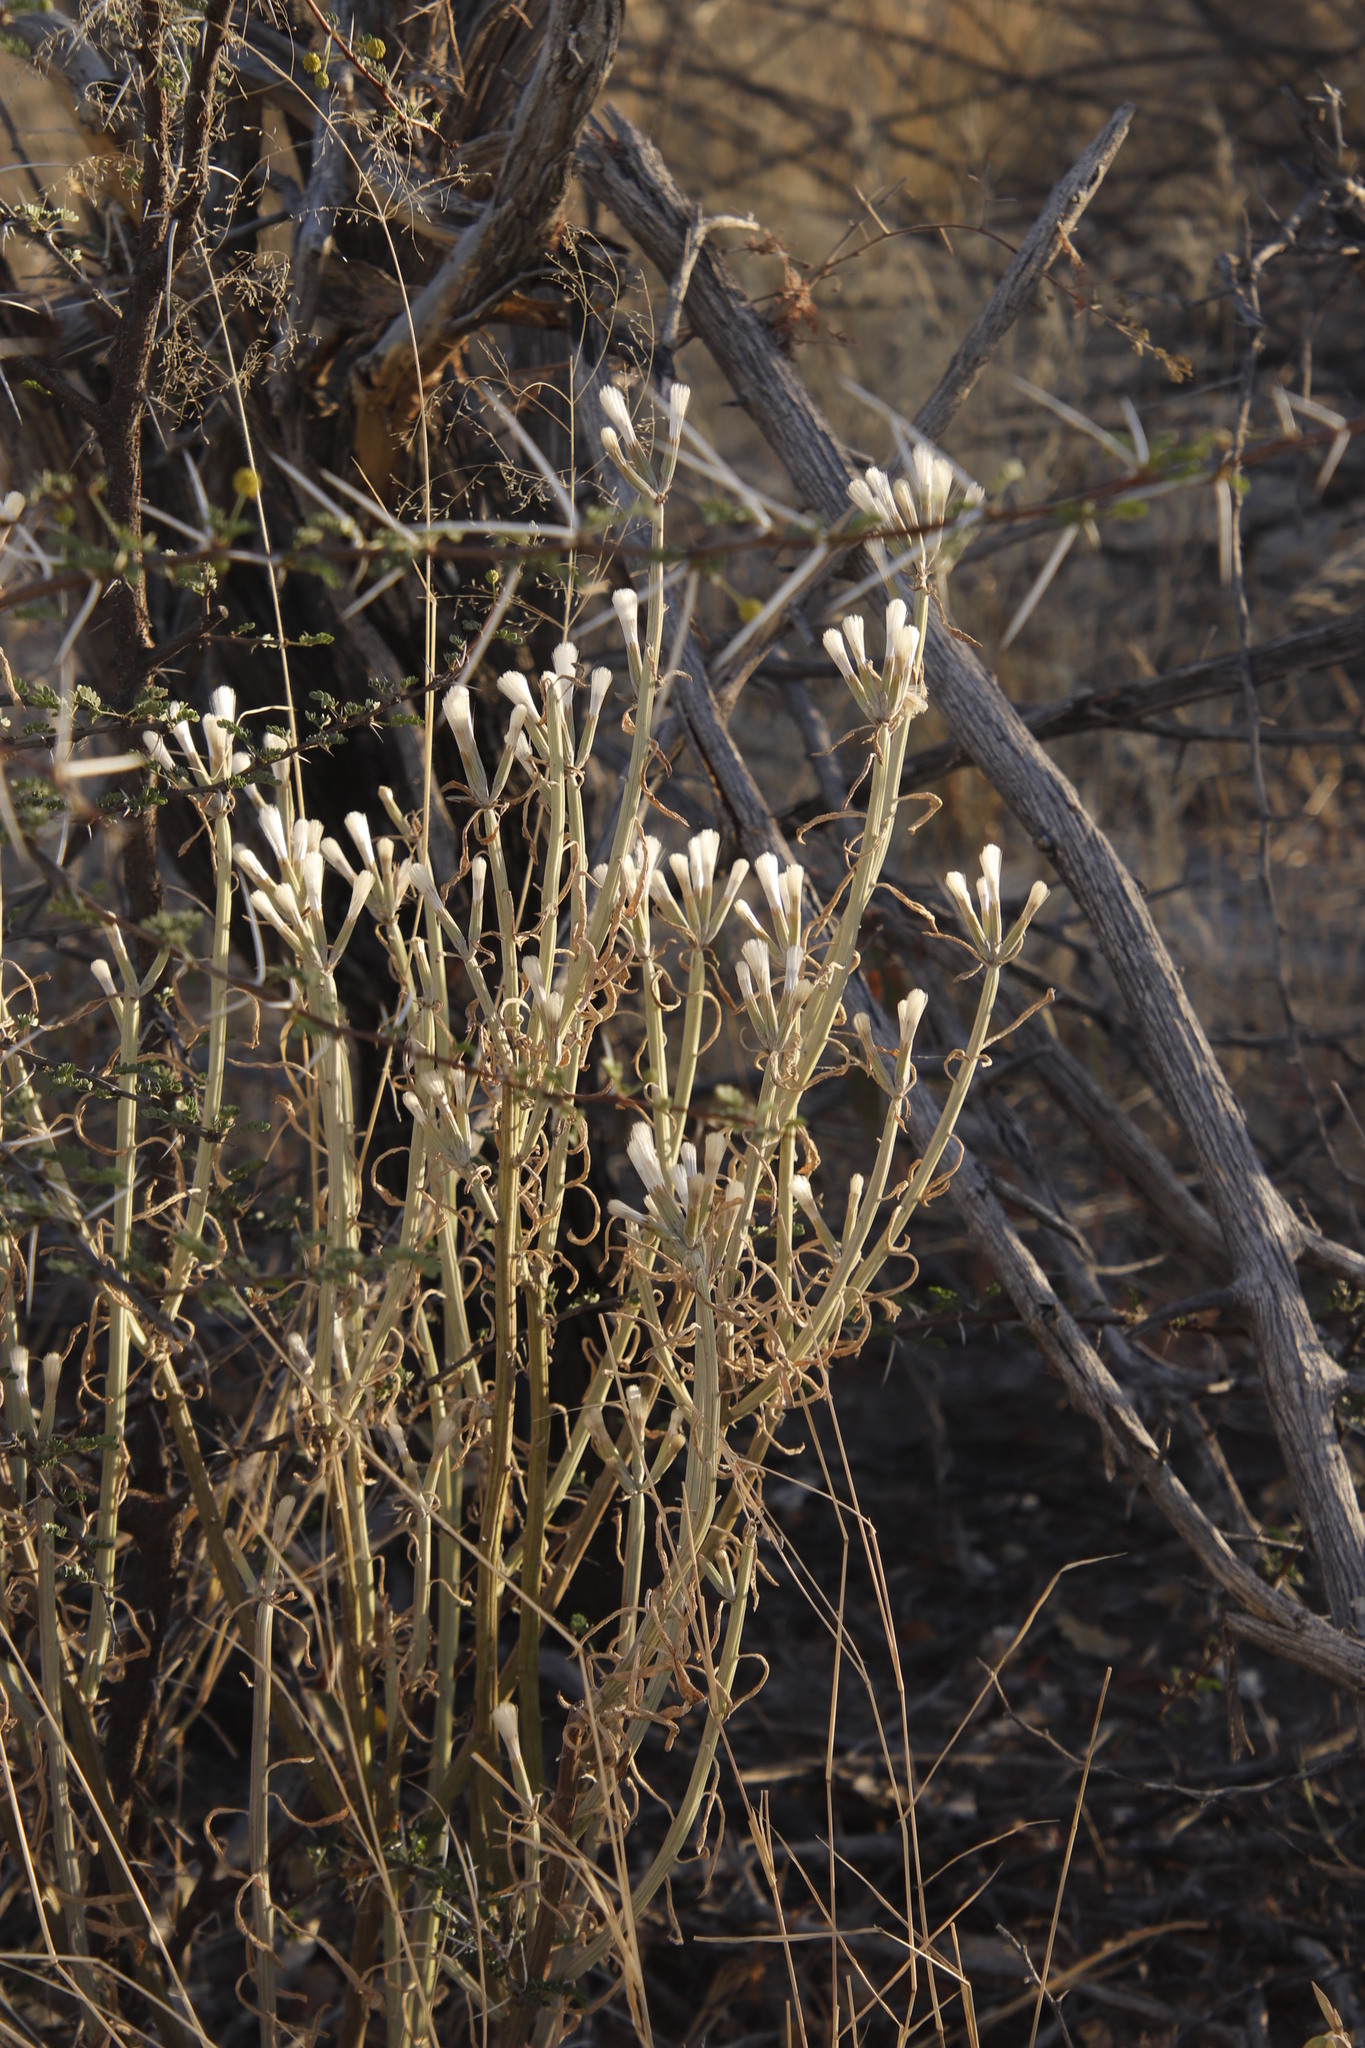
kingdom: Plantae
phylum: Tracheophyta
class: Magnoliopsida
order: Asterales
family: Asteraceae
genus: Curio
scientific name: Curio avasimontanus
